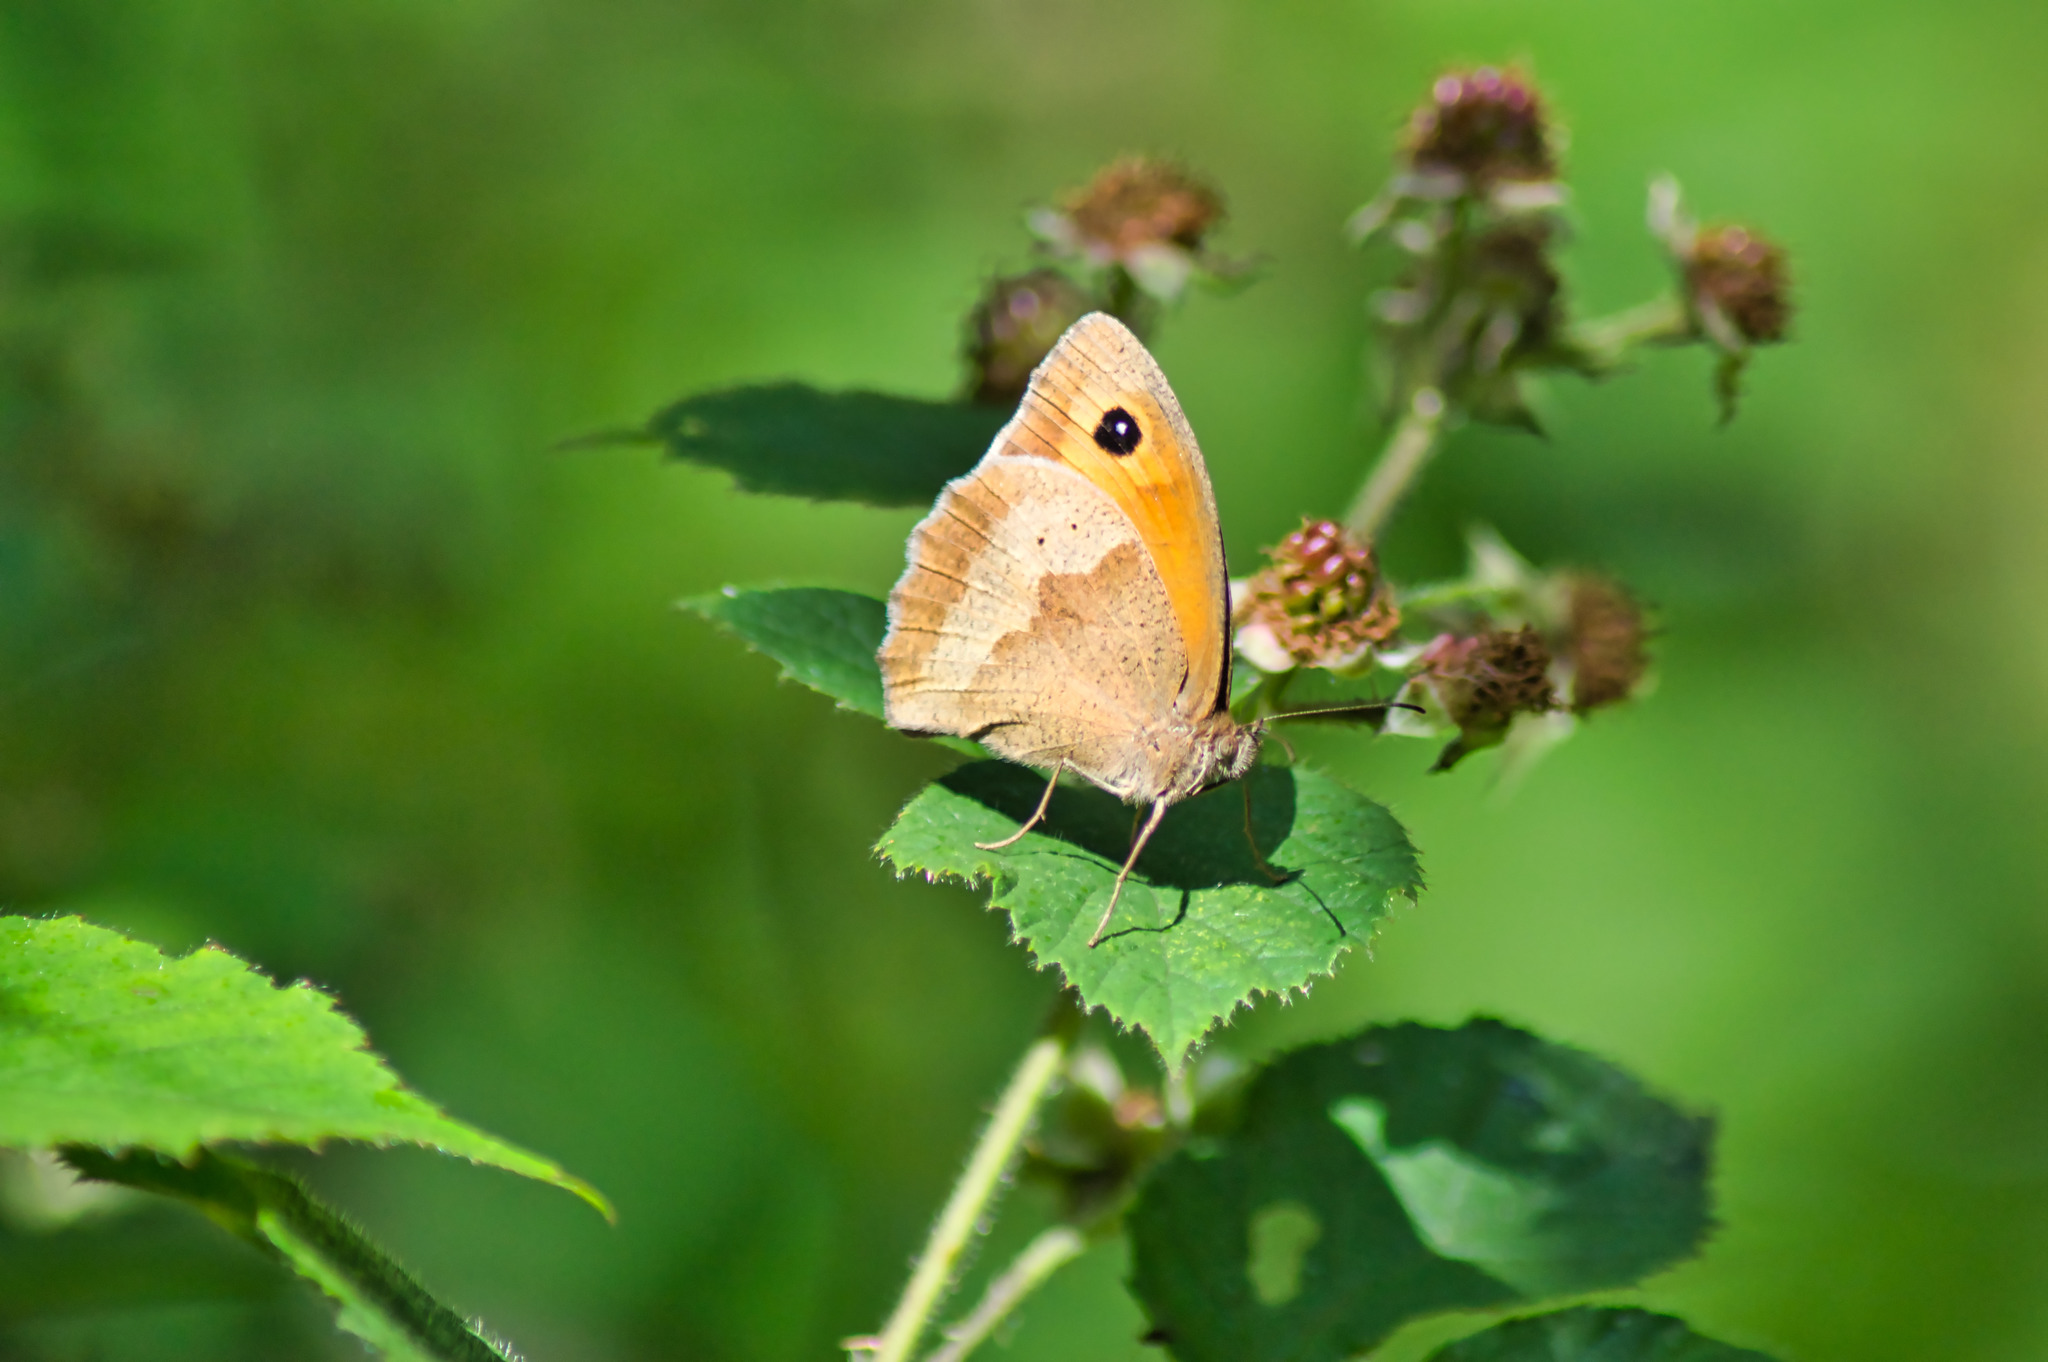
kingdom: Animalia
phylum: Arthropoda
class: Insecta
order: Lepidoptera
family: Nymphalidae
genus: Maniola
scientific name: Maniola jurtina
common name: Meadow brown
